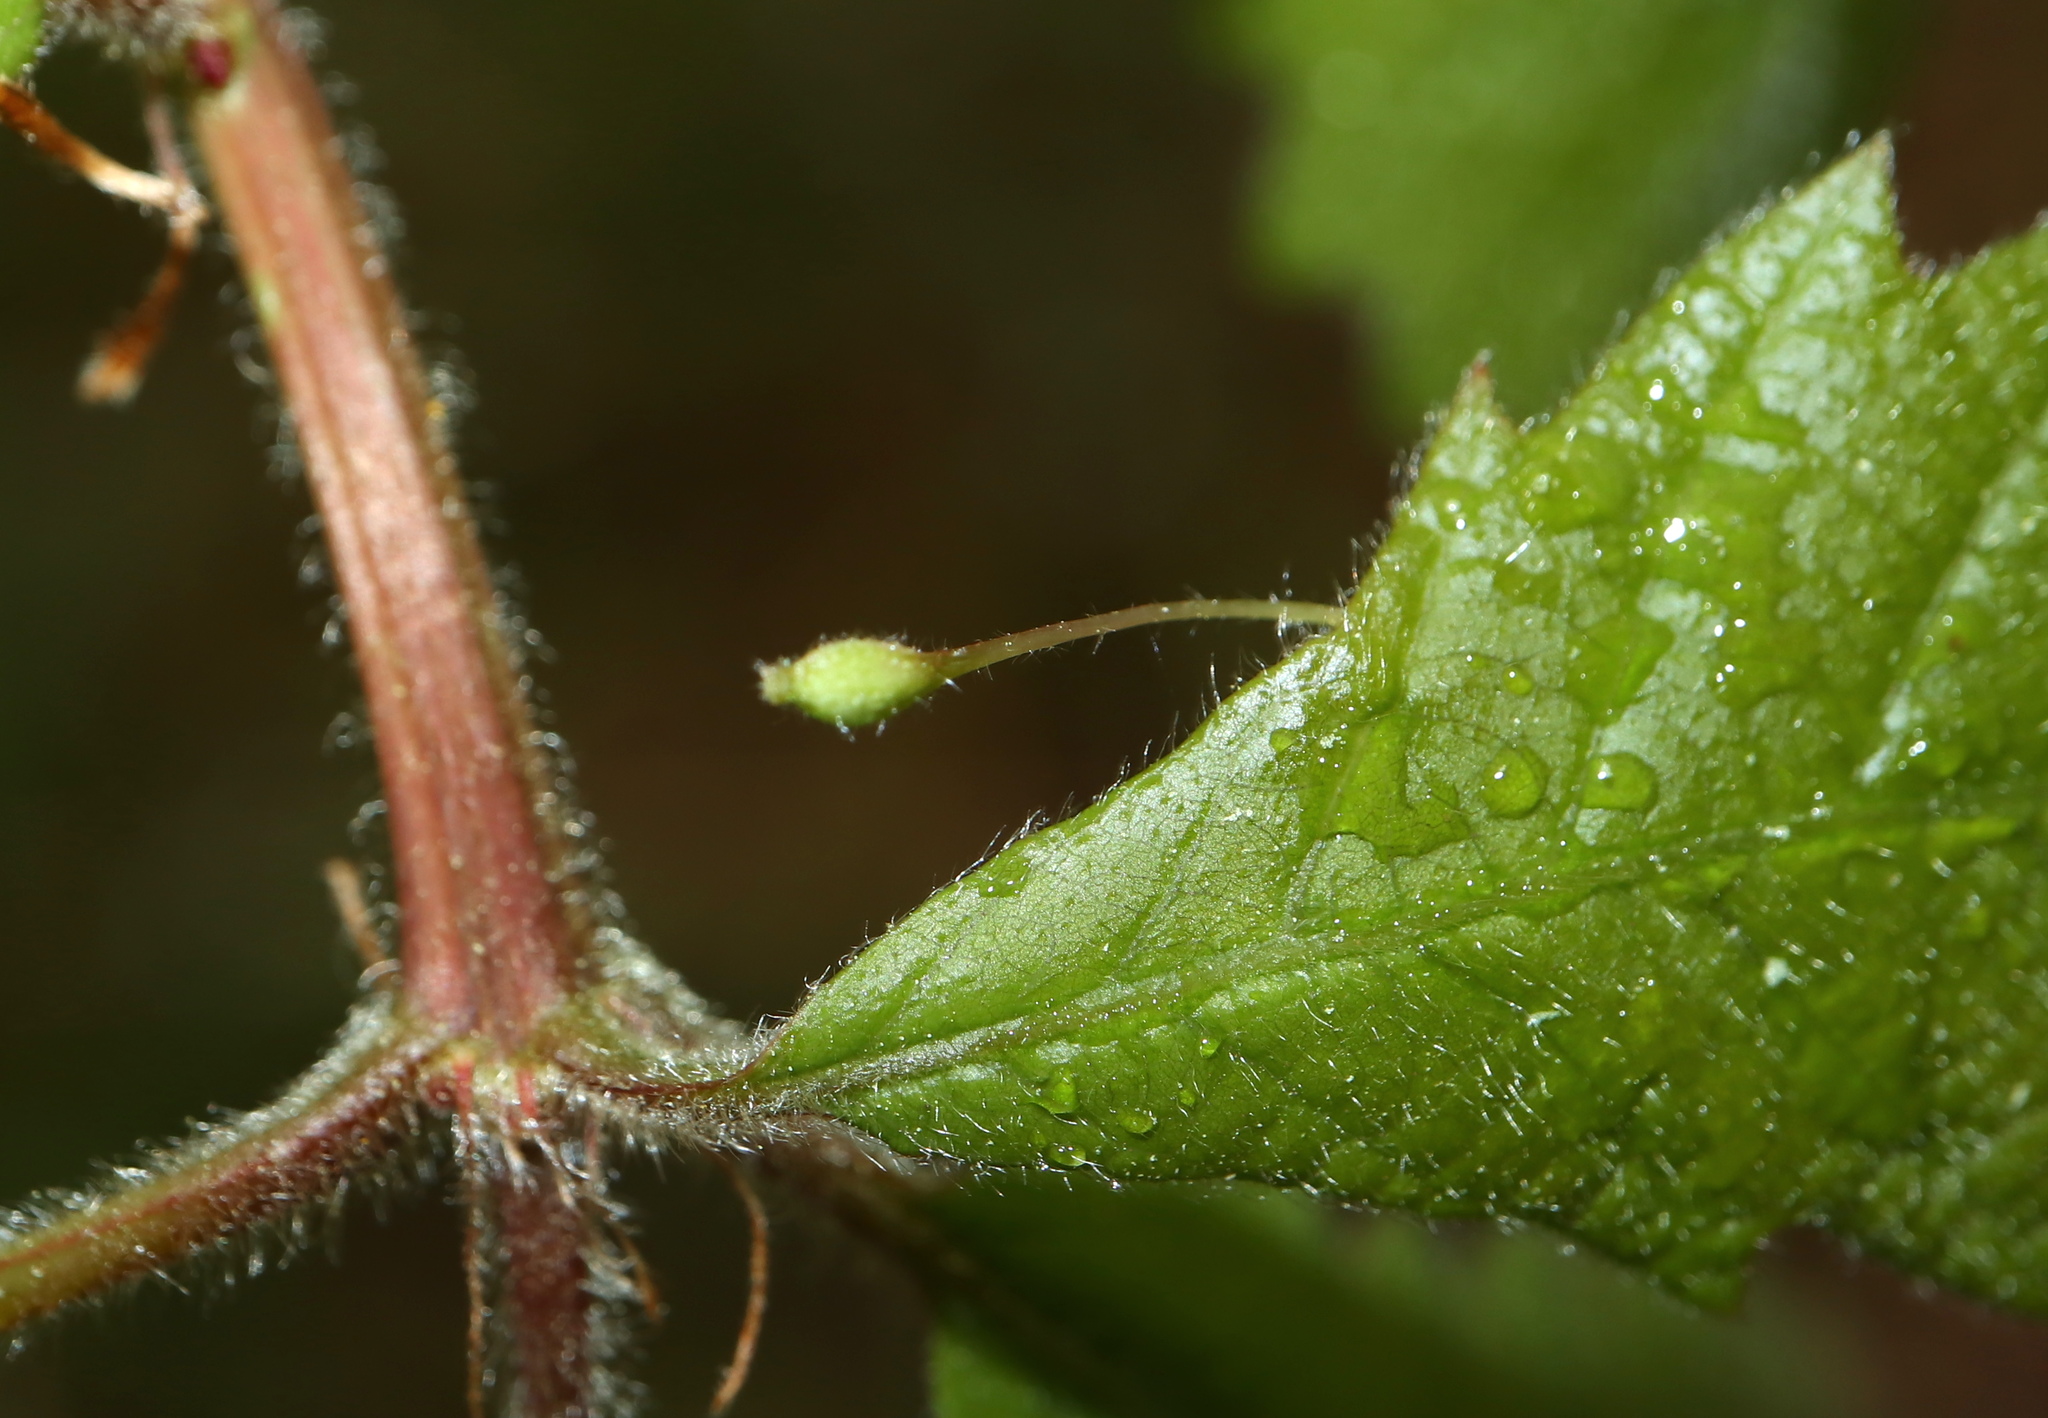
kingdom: Animalia
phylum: Arthropoda
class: Insecta
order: Hymenoptera
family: Cynipidae
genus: Andricus
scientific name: Andricus
